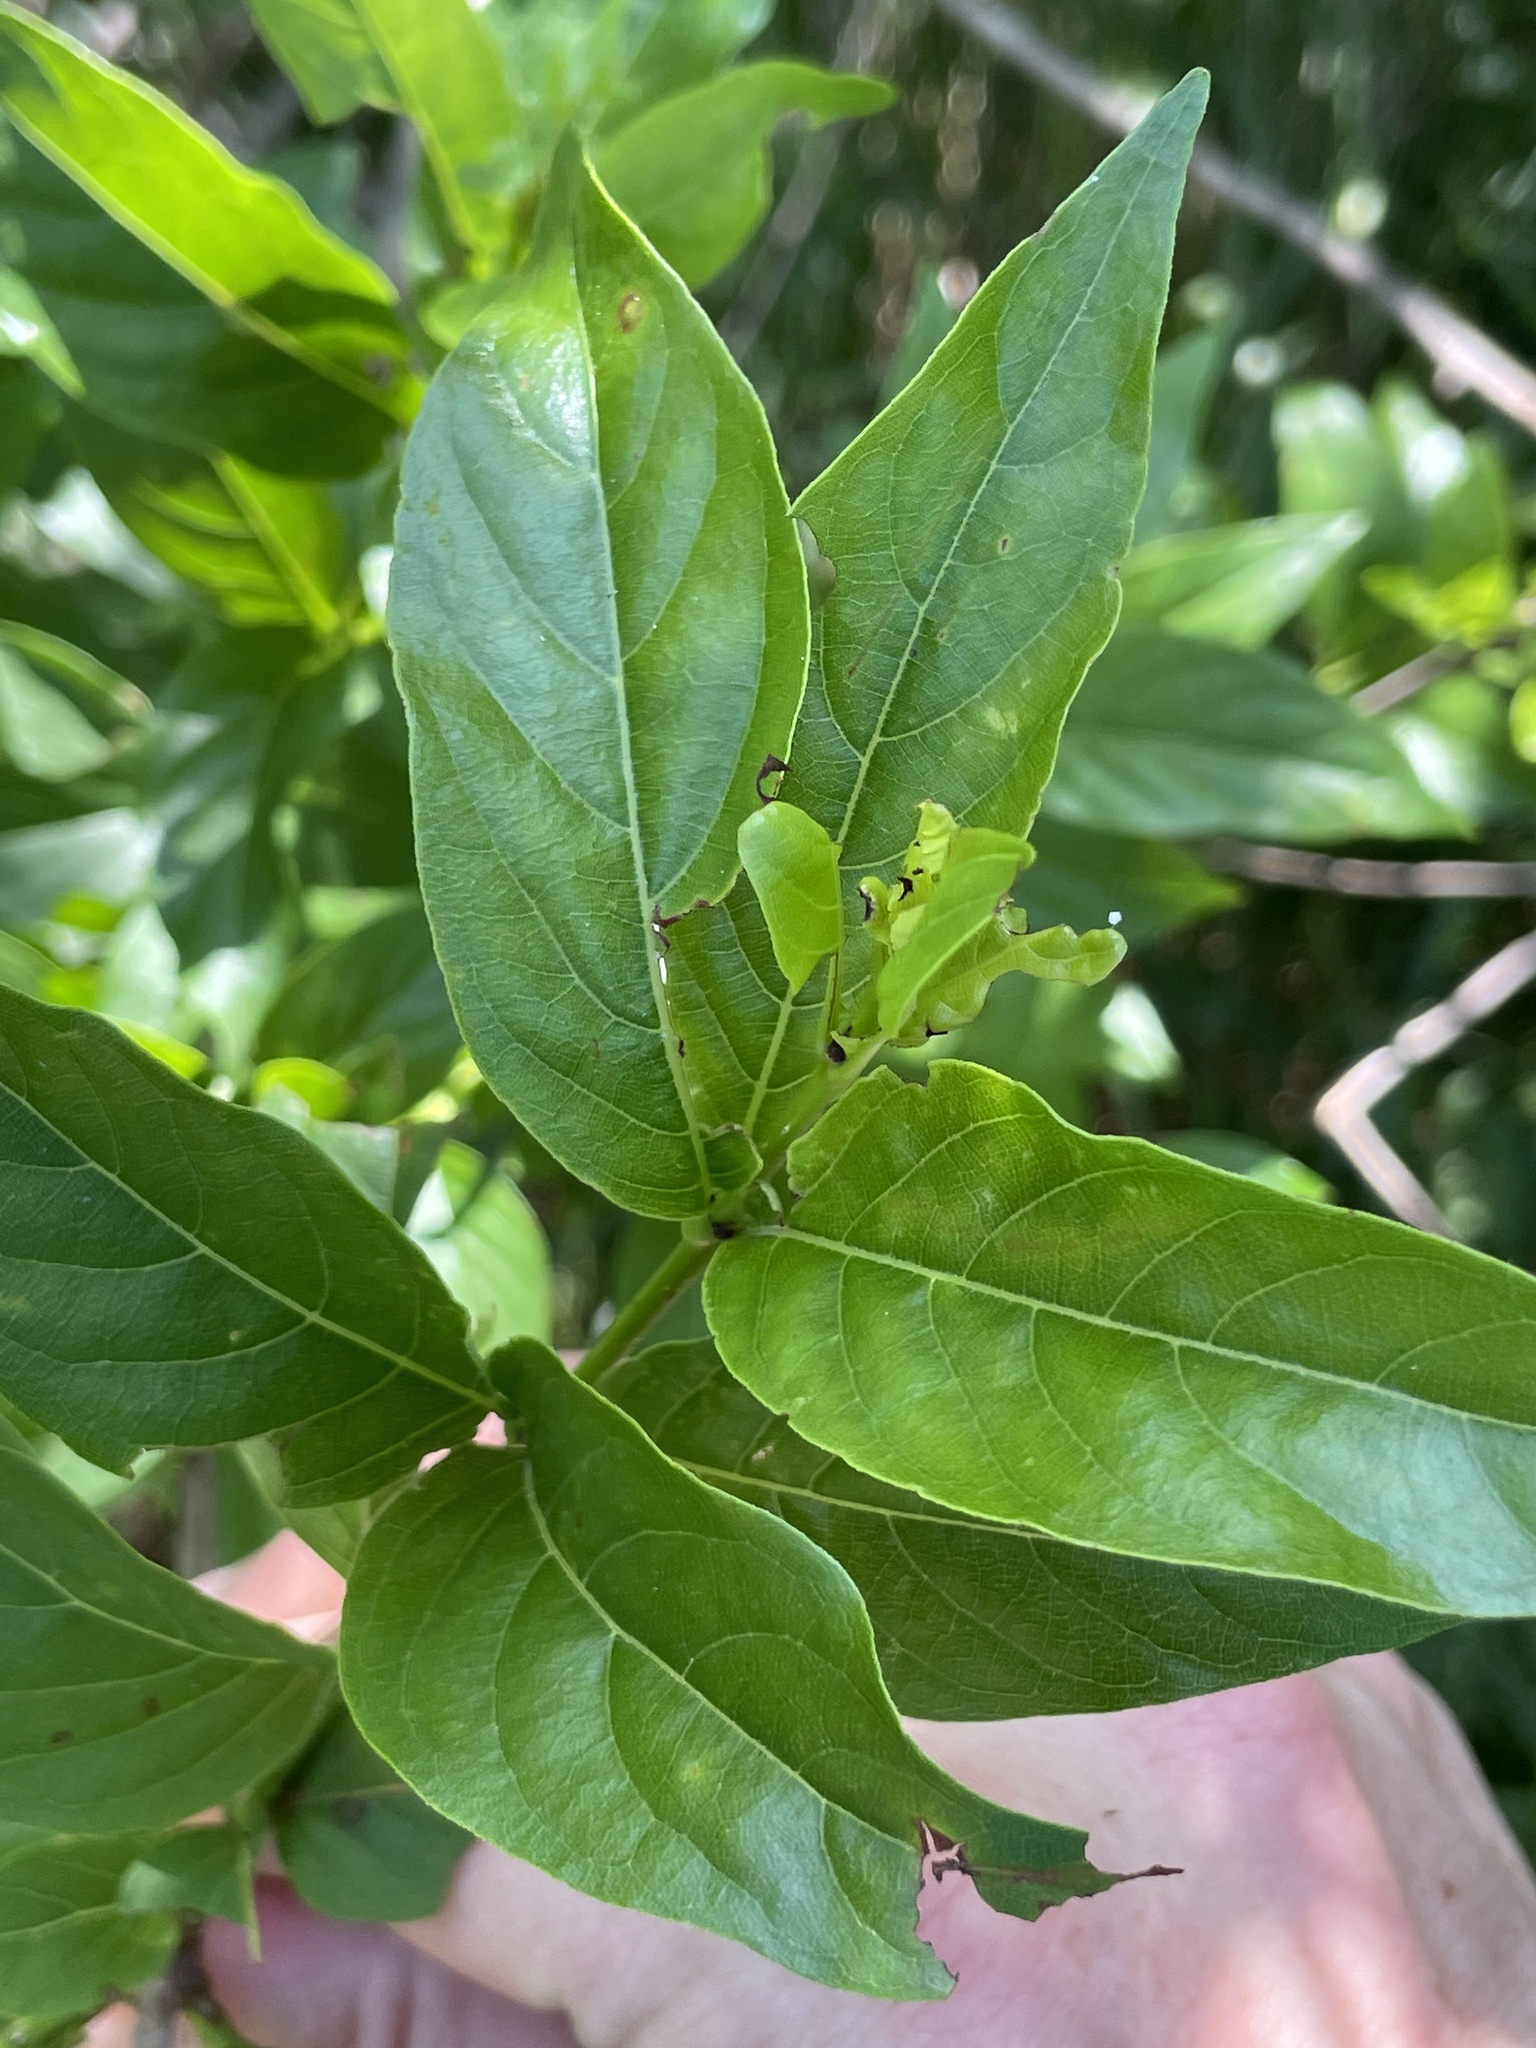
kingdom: Plantae
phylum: Tracheophyta
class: Magnoliopsida
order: Gentianales
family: Rubiaceae
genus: Cephalanthus
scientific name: Cephalanthus occidentalis
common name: Button-willow
